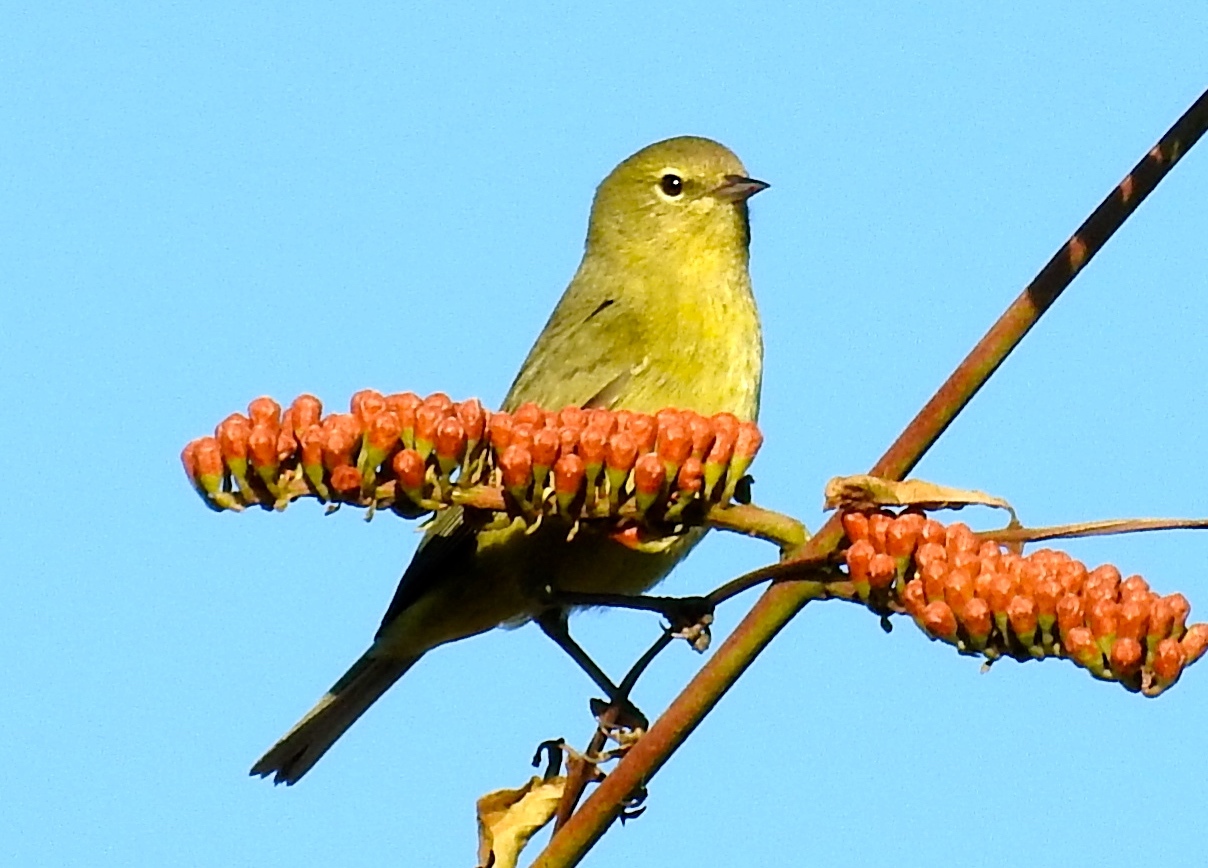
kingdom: Animalia
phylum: Chordata
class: Aves
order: Passeriformes
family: Parulidae
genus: Leiothlypis
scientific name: Leiothlypis celata
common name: Orange-crowned warbler
